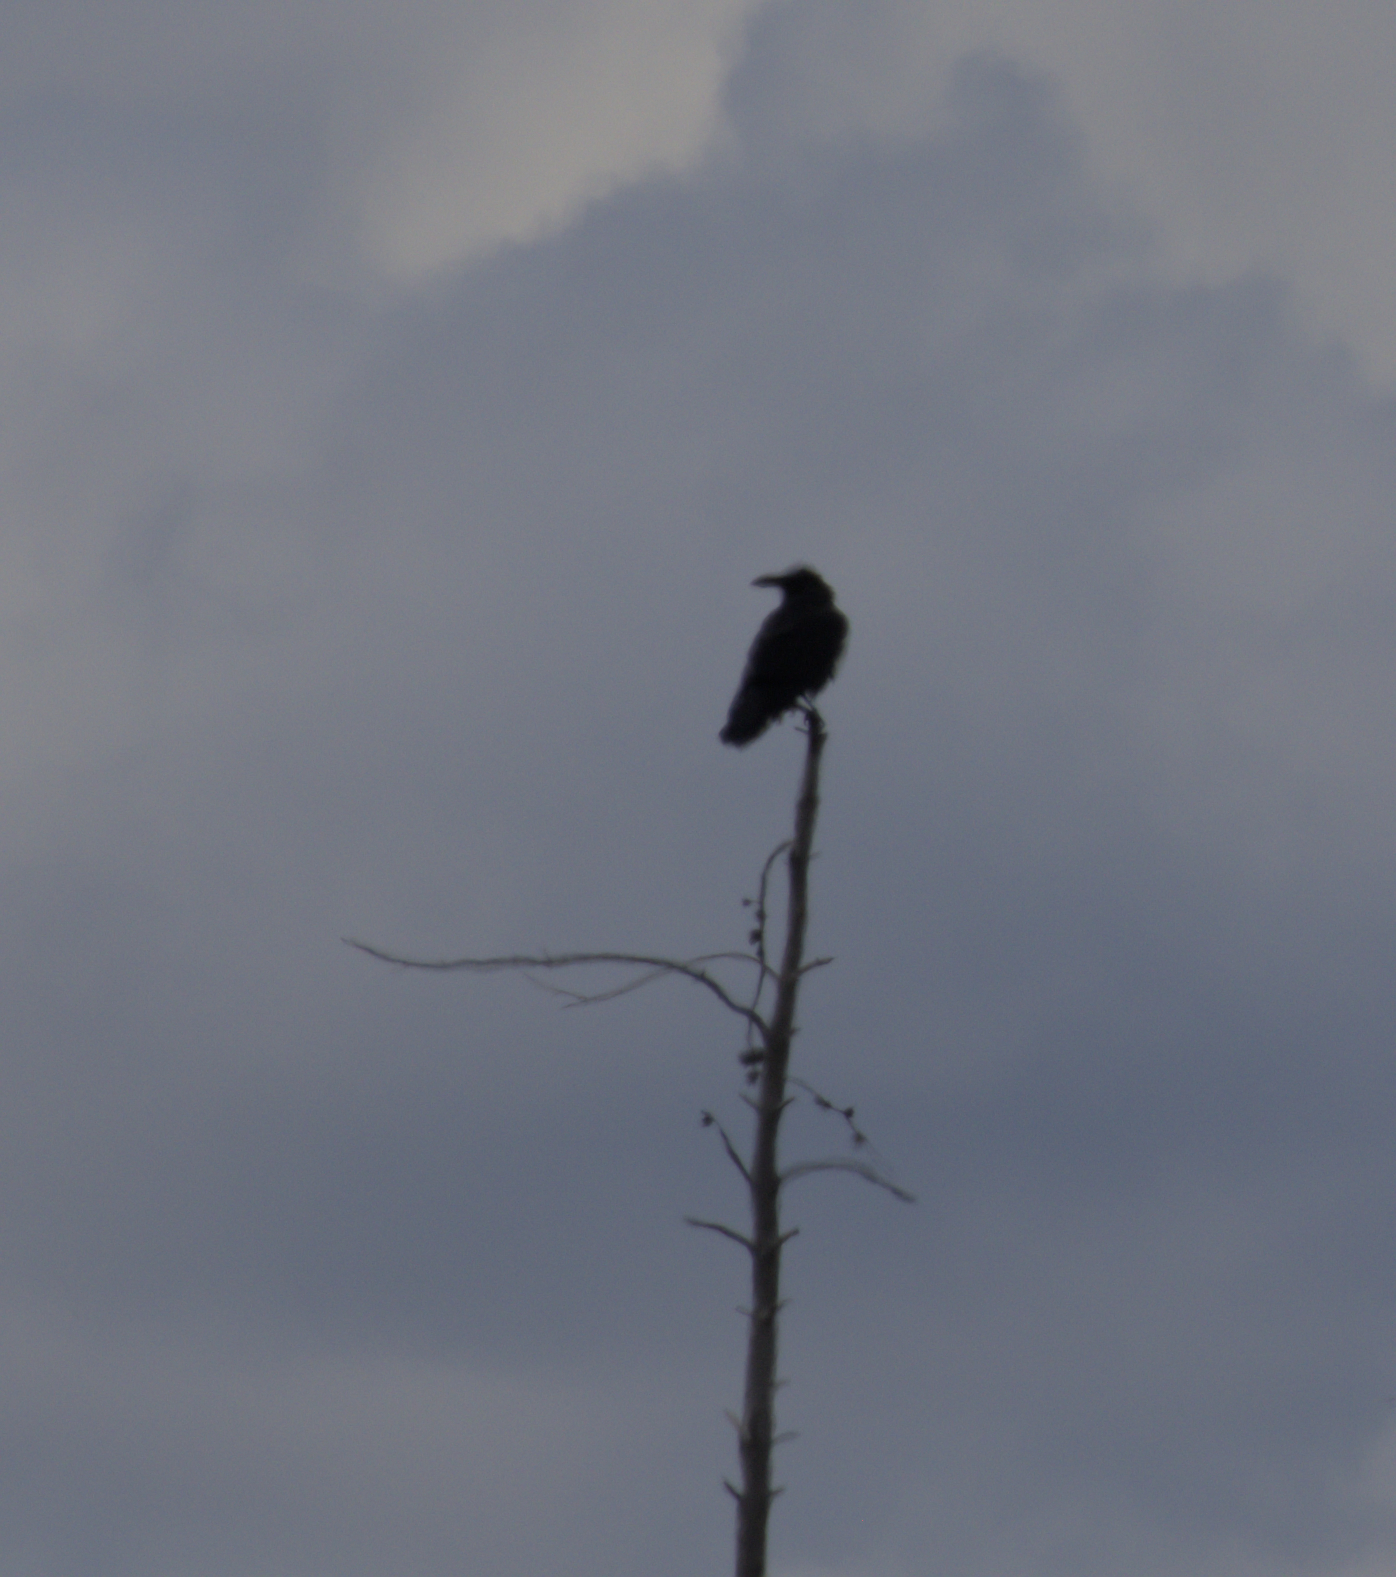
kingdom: Animalia
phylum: Chordata
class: Aves
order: Passeriformes
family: Corvidae
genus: Corvus
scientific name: Corvus corax
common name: Common raven
